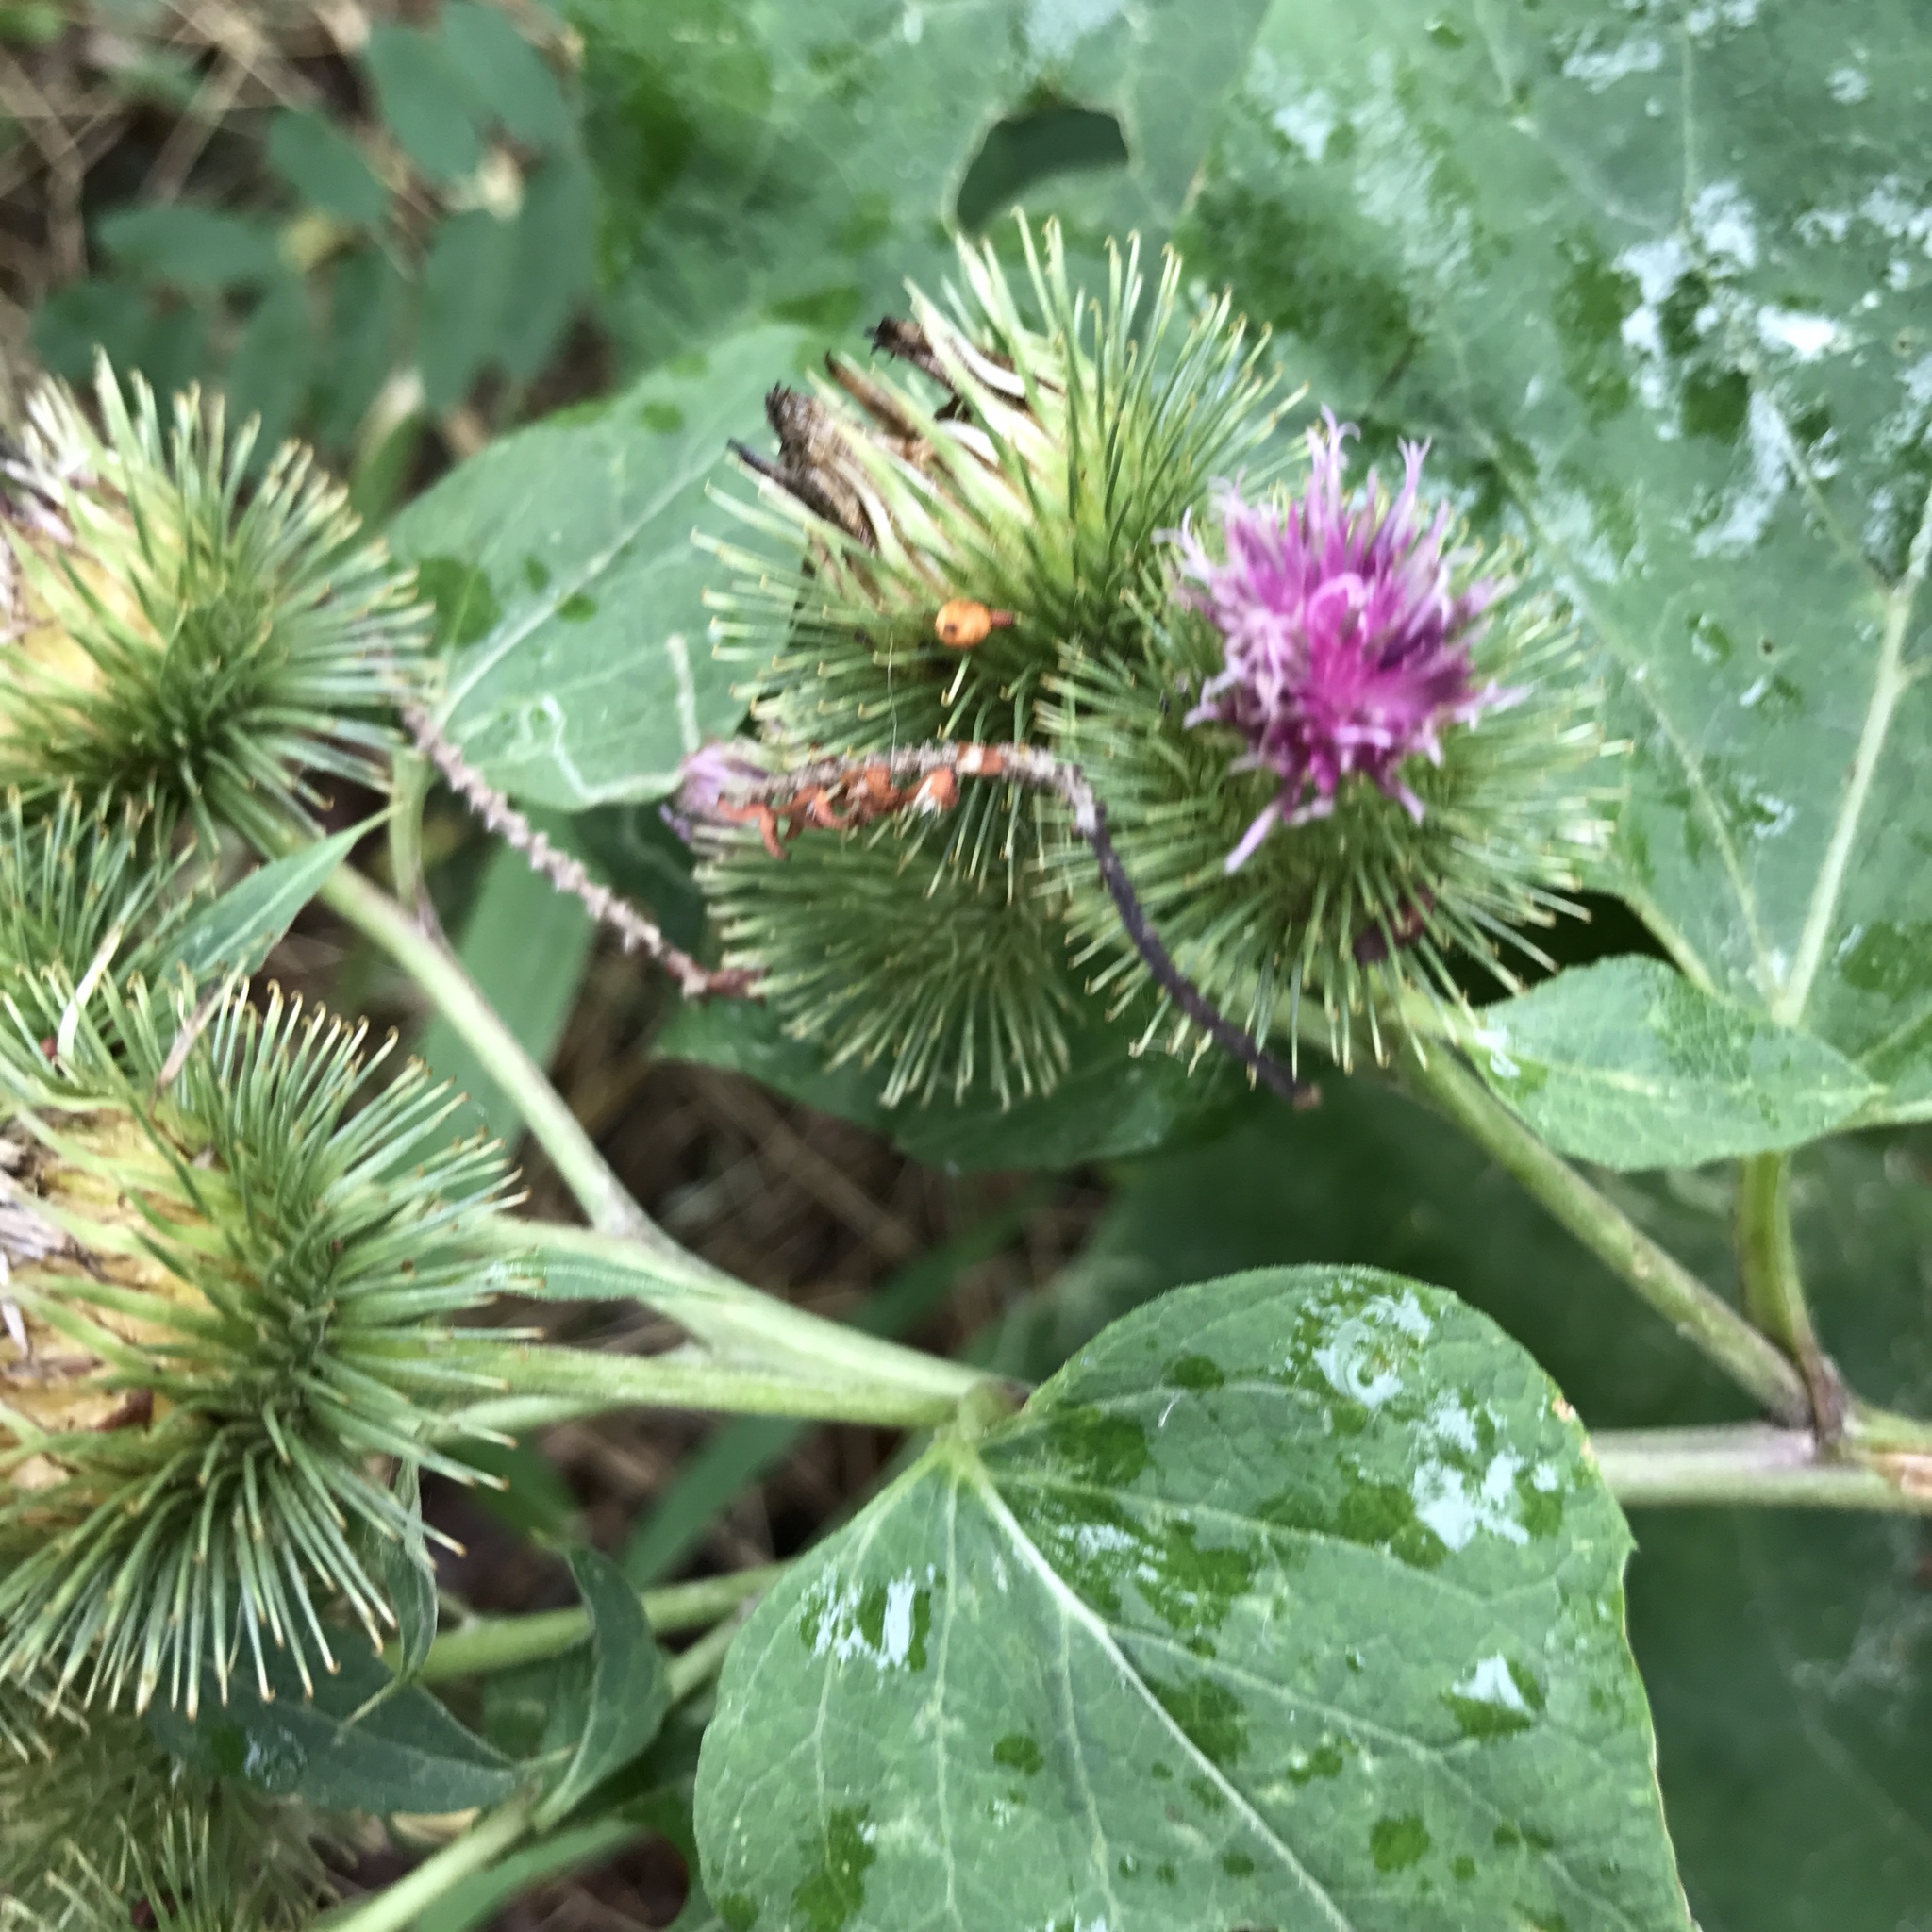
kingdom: Plantae
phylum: Tracheophyta
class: Magnoliopsida
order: Asterales
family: Asteraceae
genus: Arctium
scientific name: Arctium lappa
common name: Greater burdock
